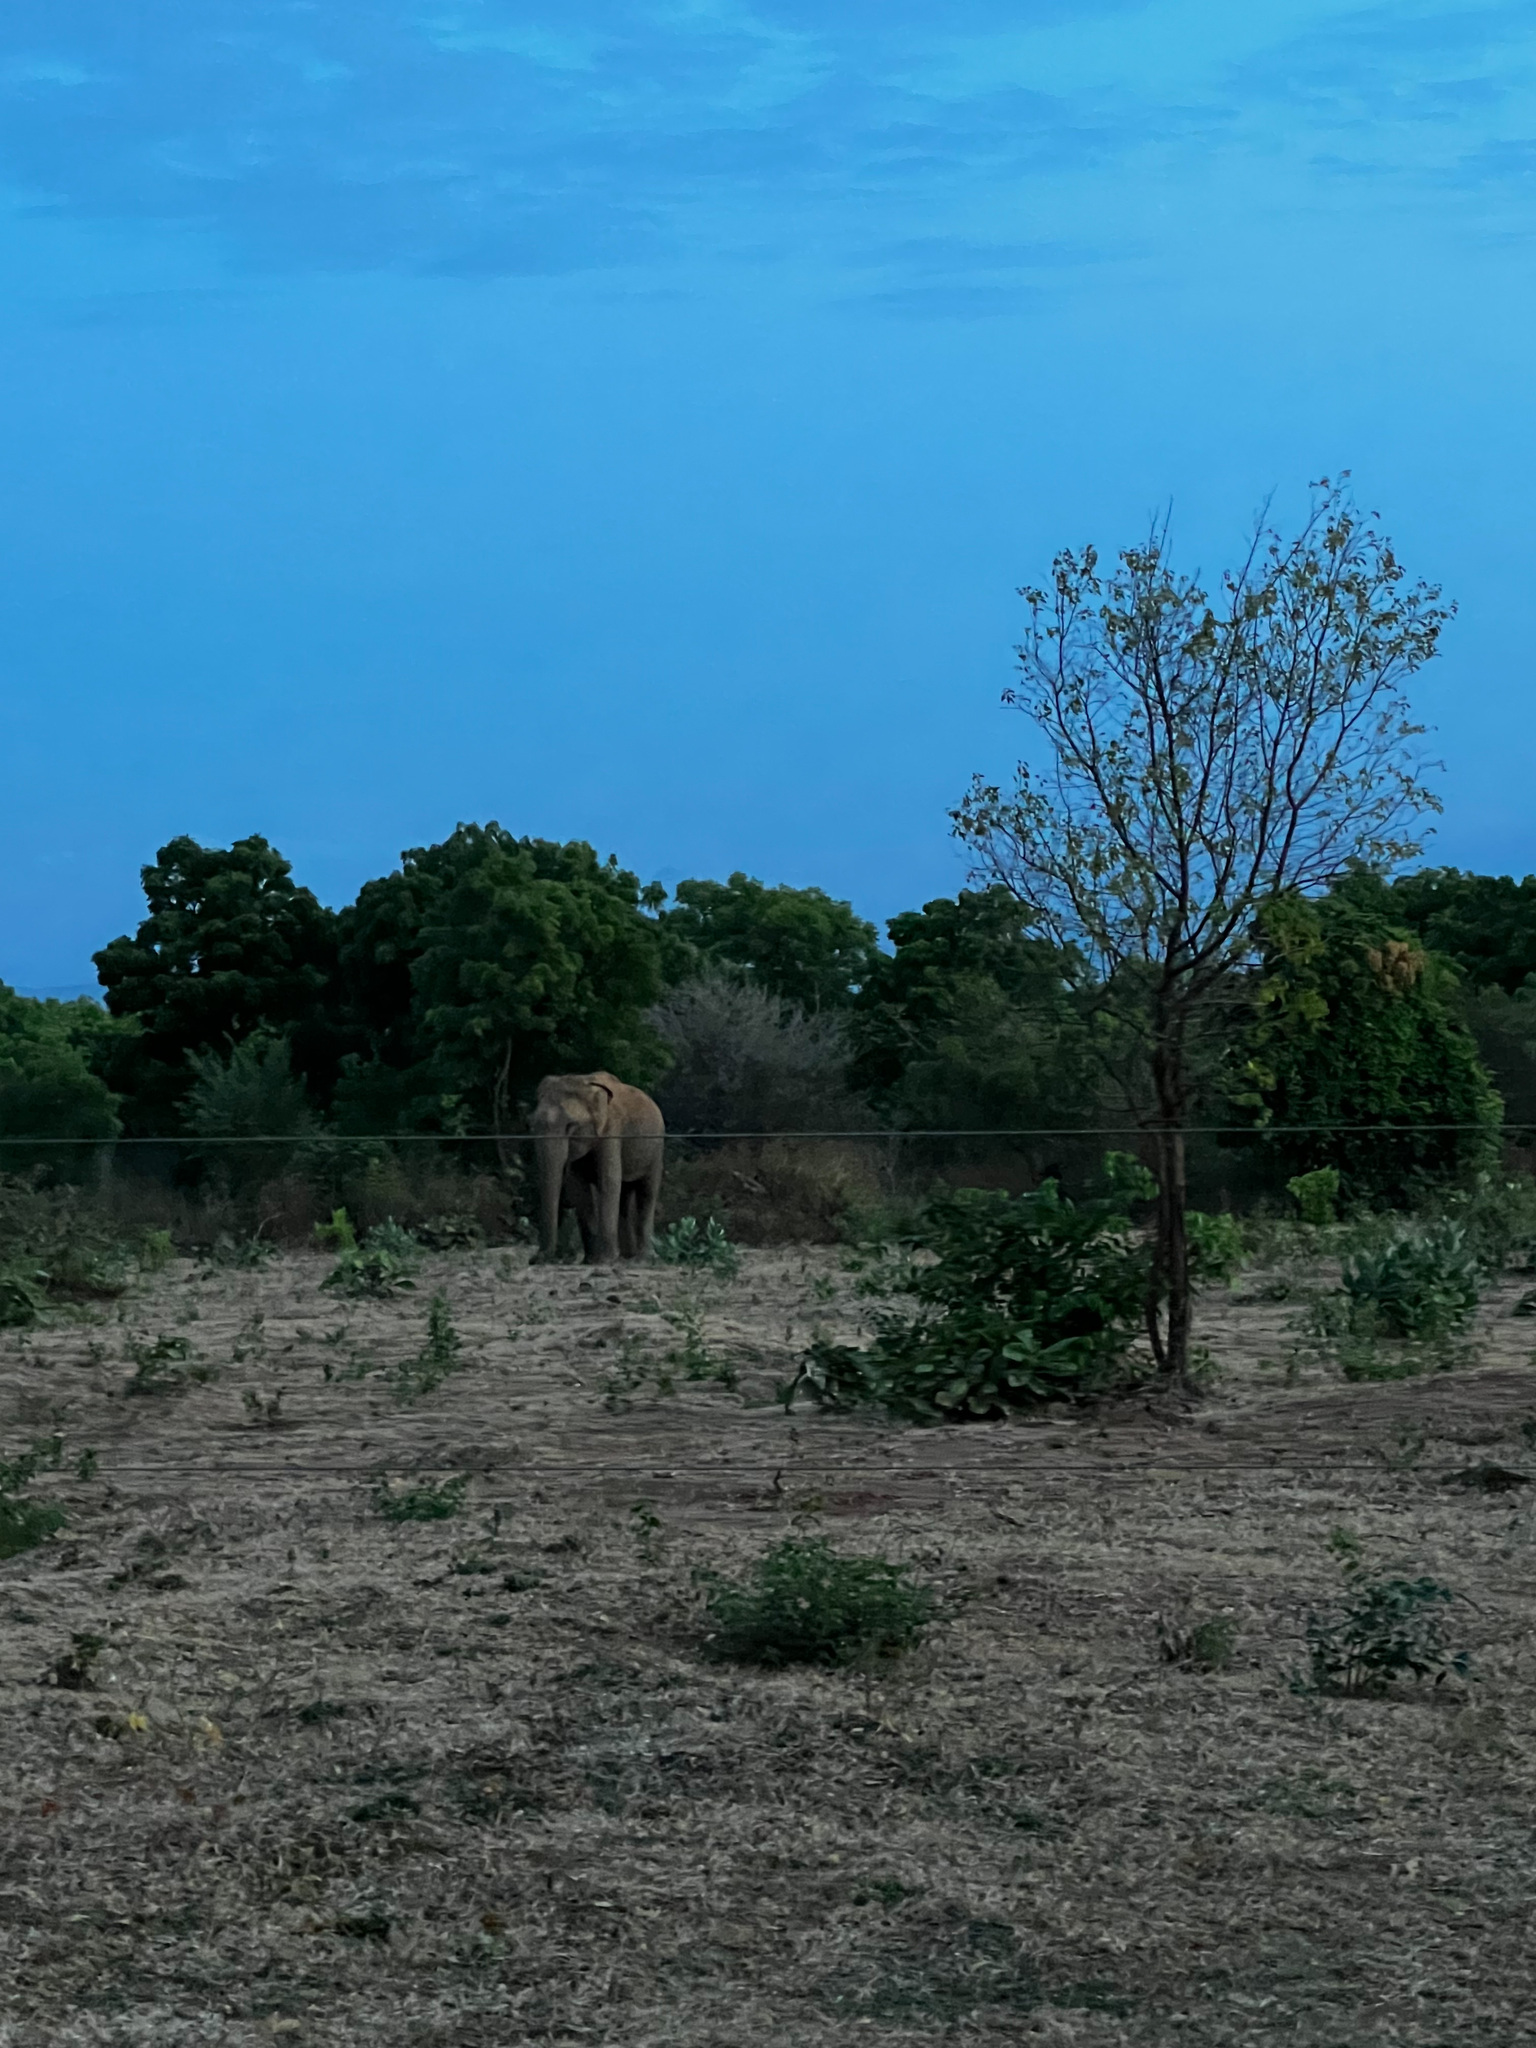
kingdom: Animalia
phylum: Chordata
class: Mammalia
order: Proboscidea
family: Elephantidae
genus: Elephas
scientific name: Elephas maximus
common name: Asian elephant
